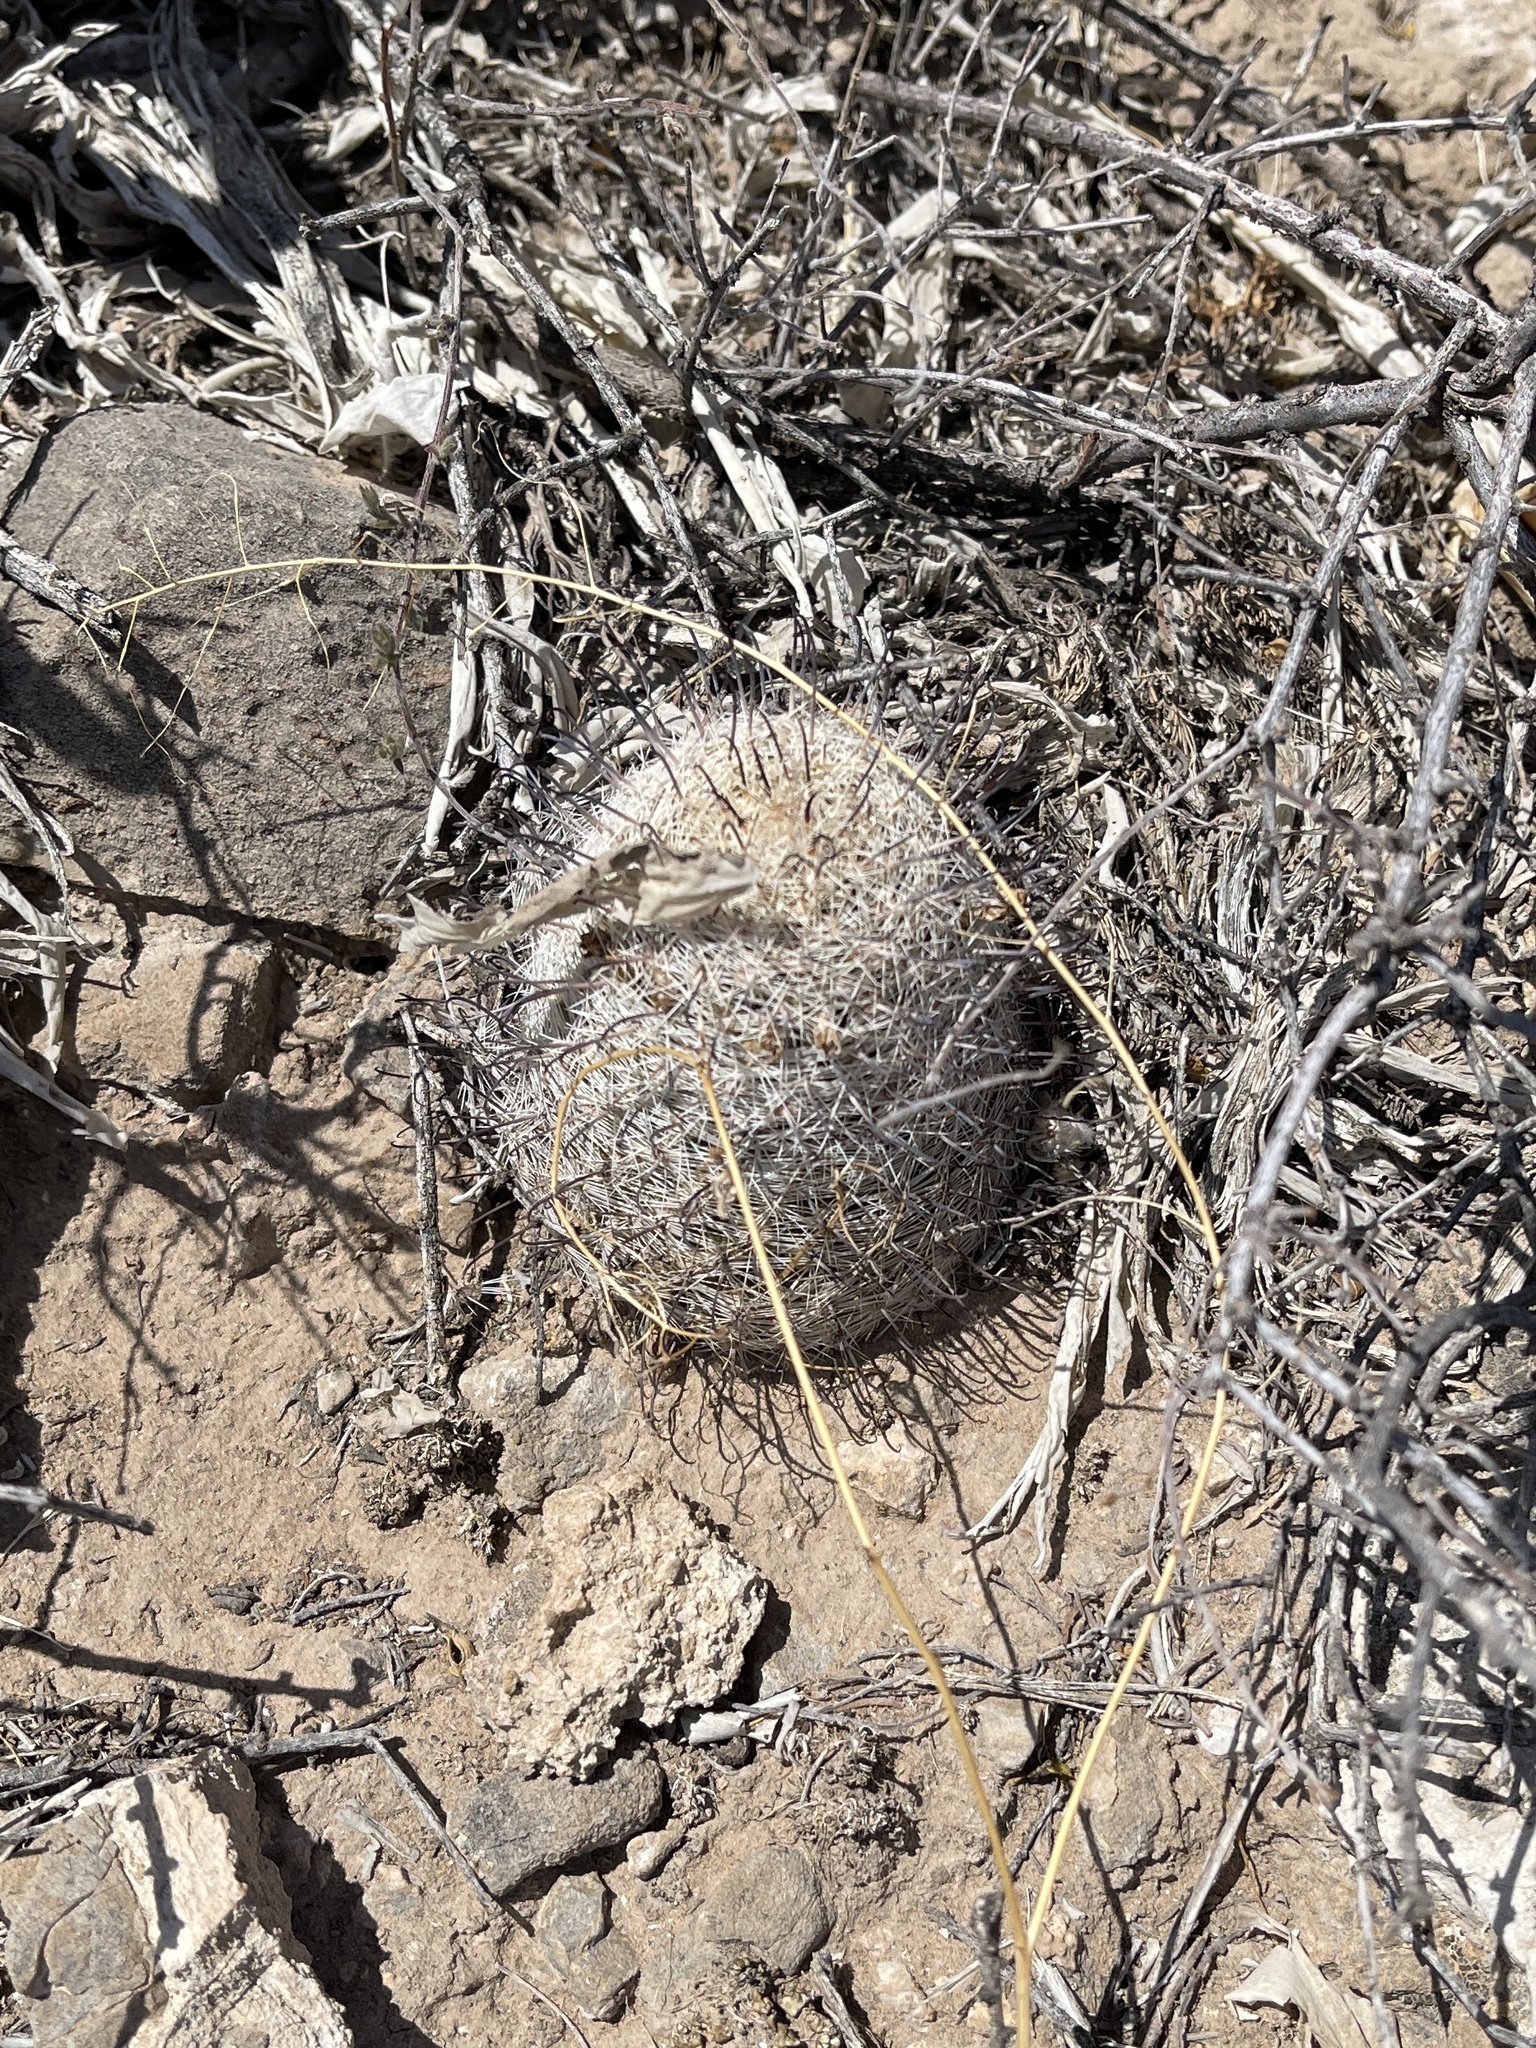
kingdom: Plantae
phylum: Tracheophyta
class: Magnoliopsida
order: Caryophyllales
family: Cactaceae
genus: Cochemiea
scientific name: Cochemiea grahamii
